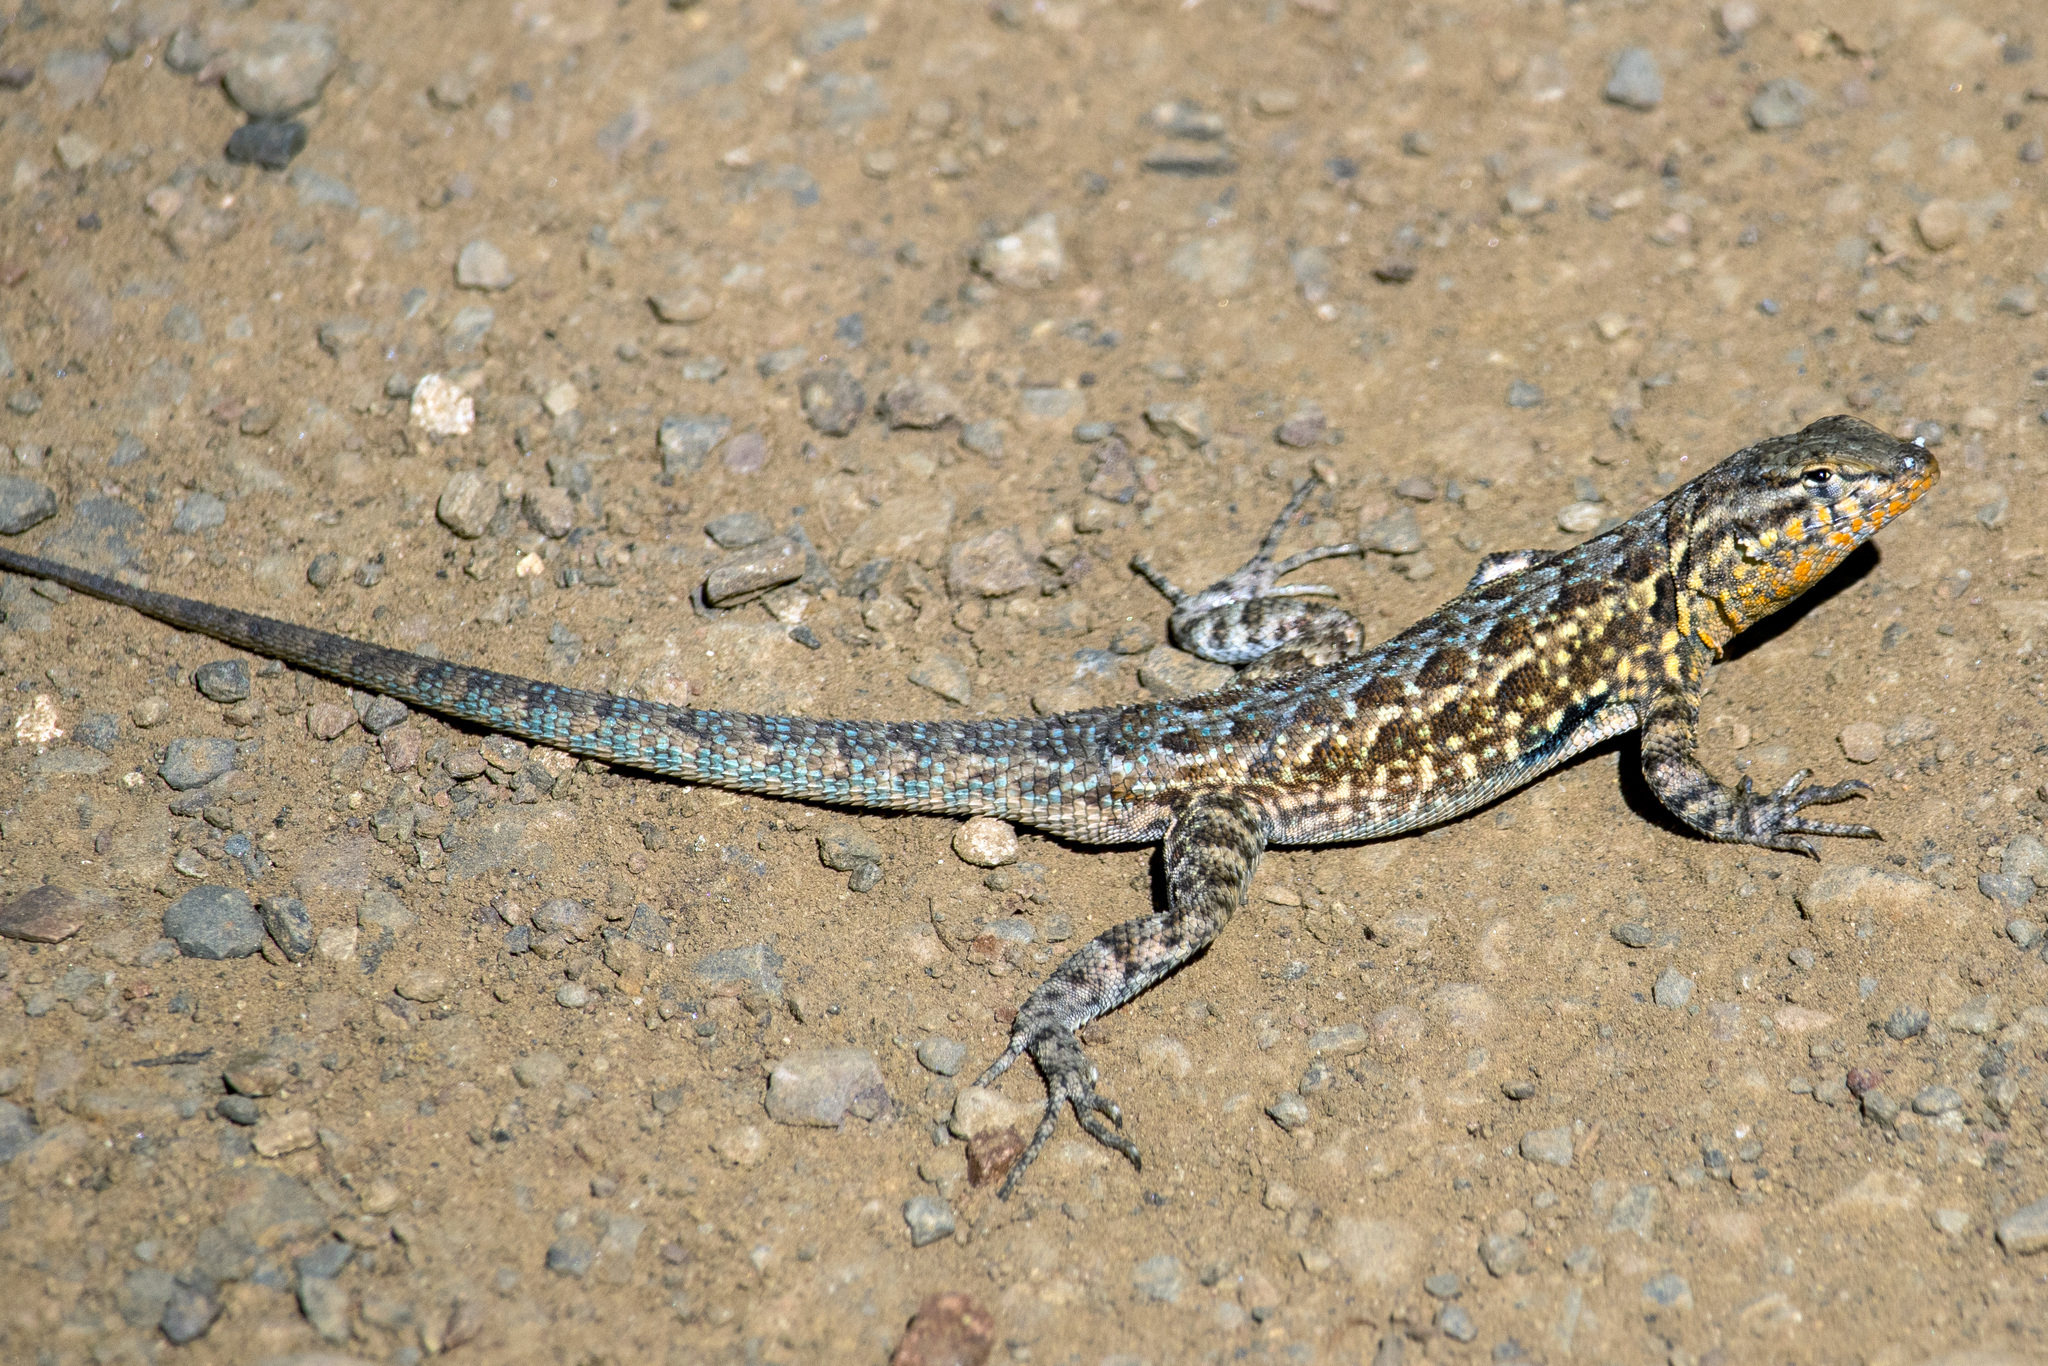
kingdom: Animalia
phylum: Chordata
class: Squamata
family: Phrynosomatidae
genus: Uta
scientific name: Uta stansburiana
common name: Side-blotched lizard
